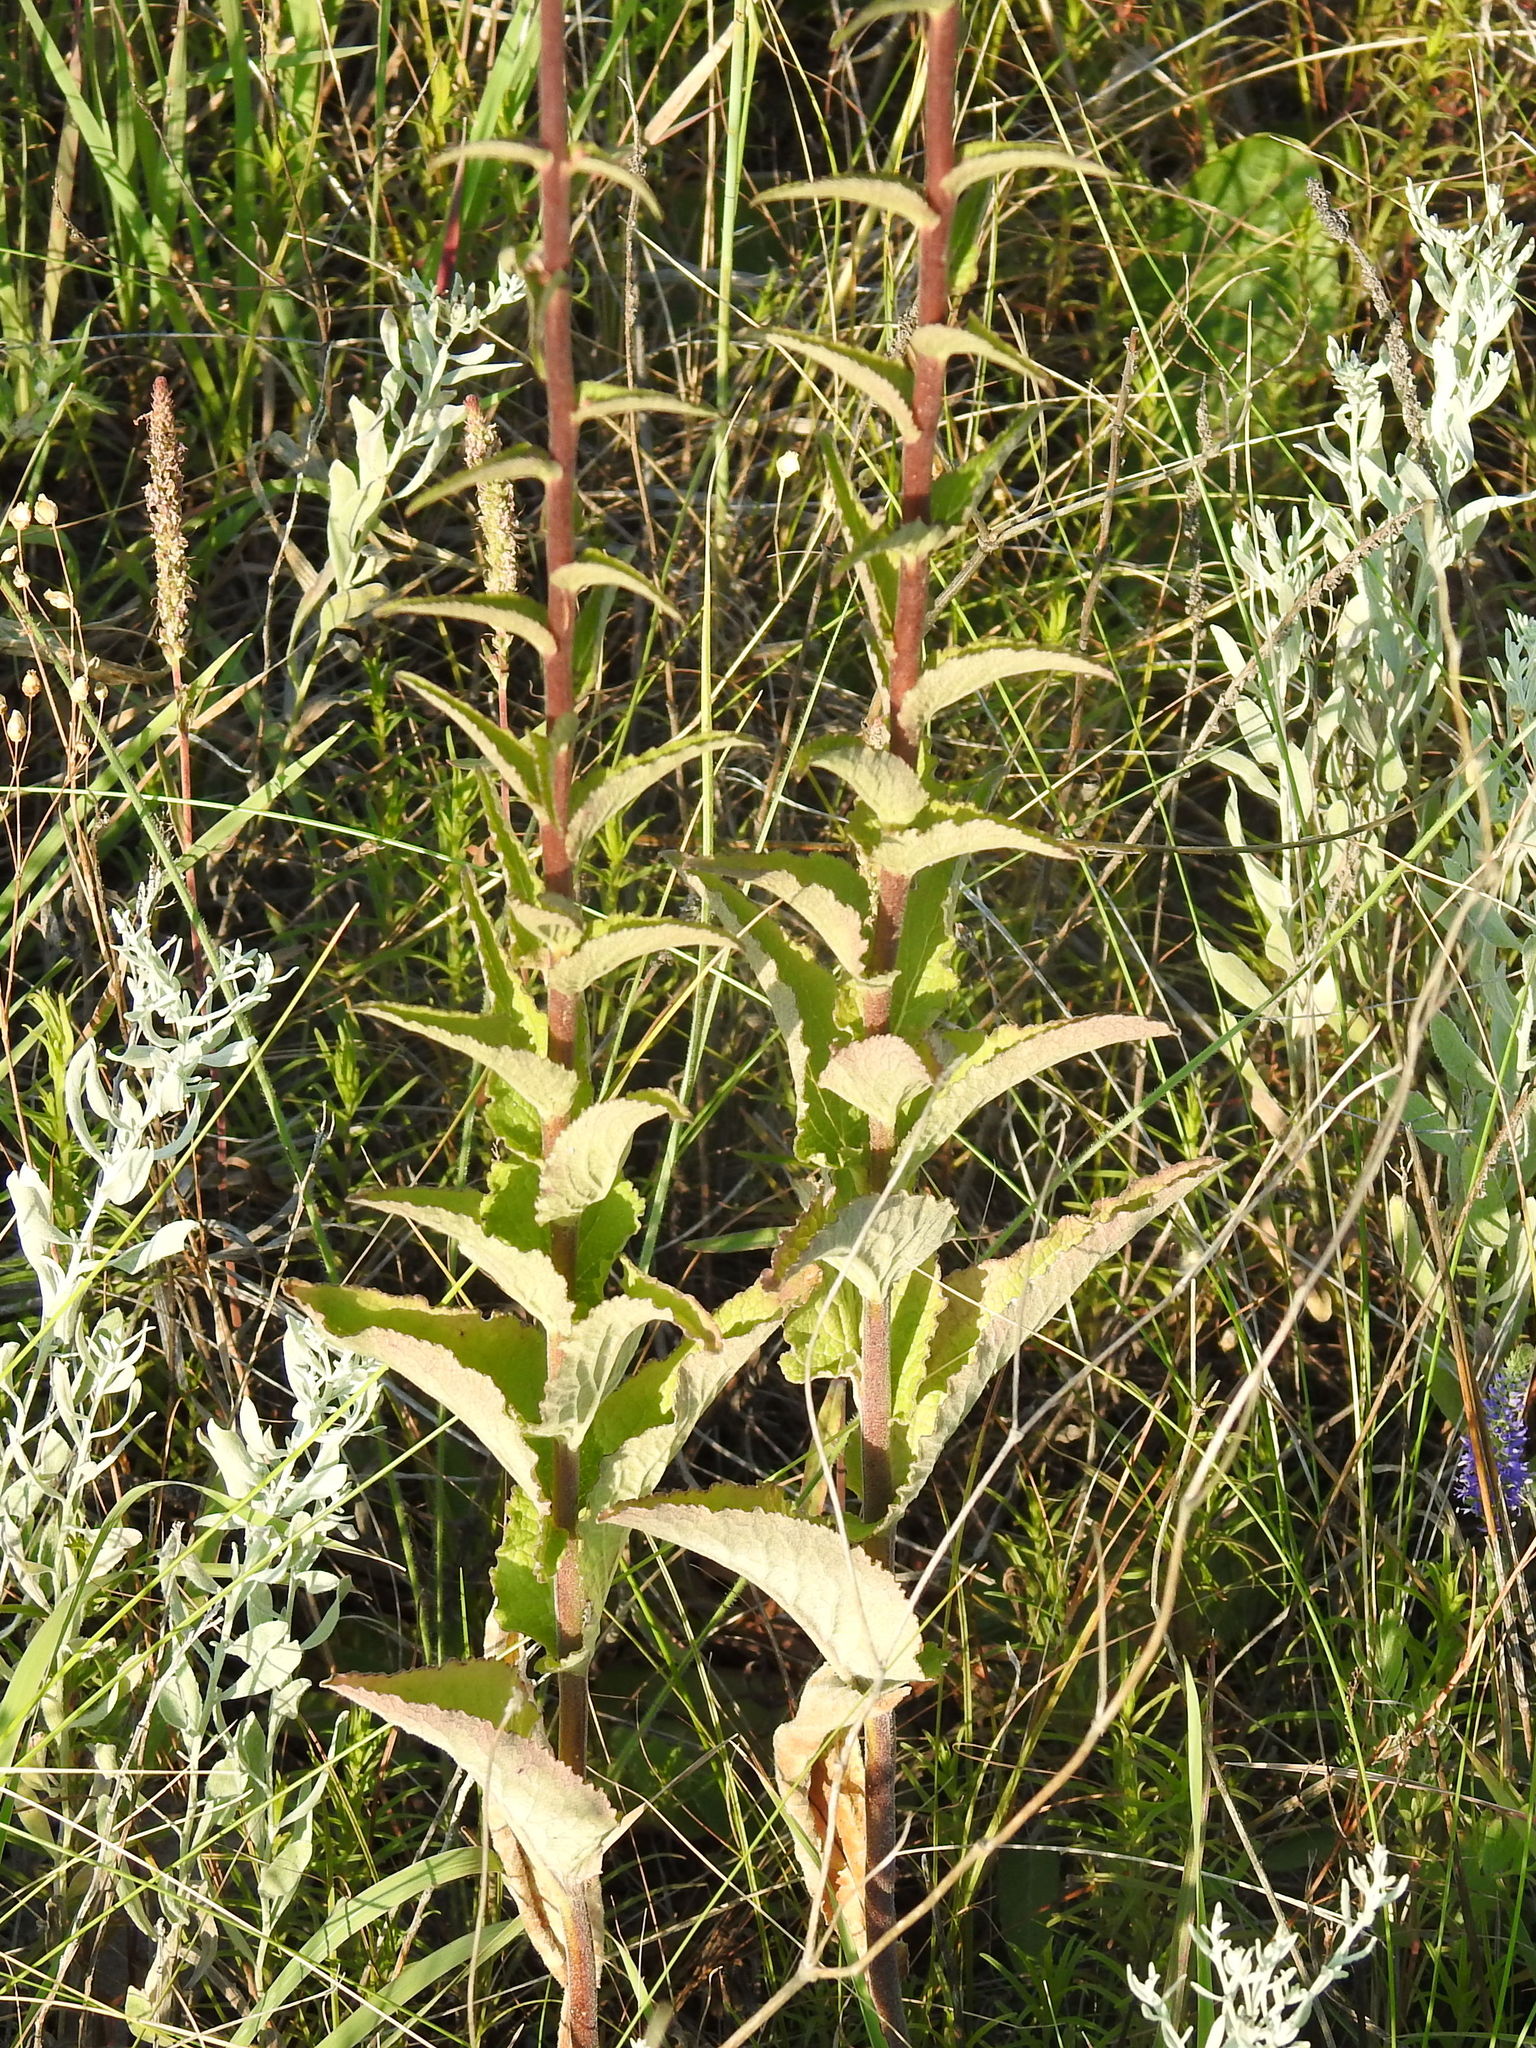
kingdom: Plantae
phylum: Tracheophyta
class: Magnoliopsida
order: Asterales
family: Campanulaceae
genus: Campanula
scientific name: Campanula bononiensis
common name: Pale bellflower
